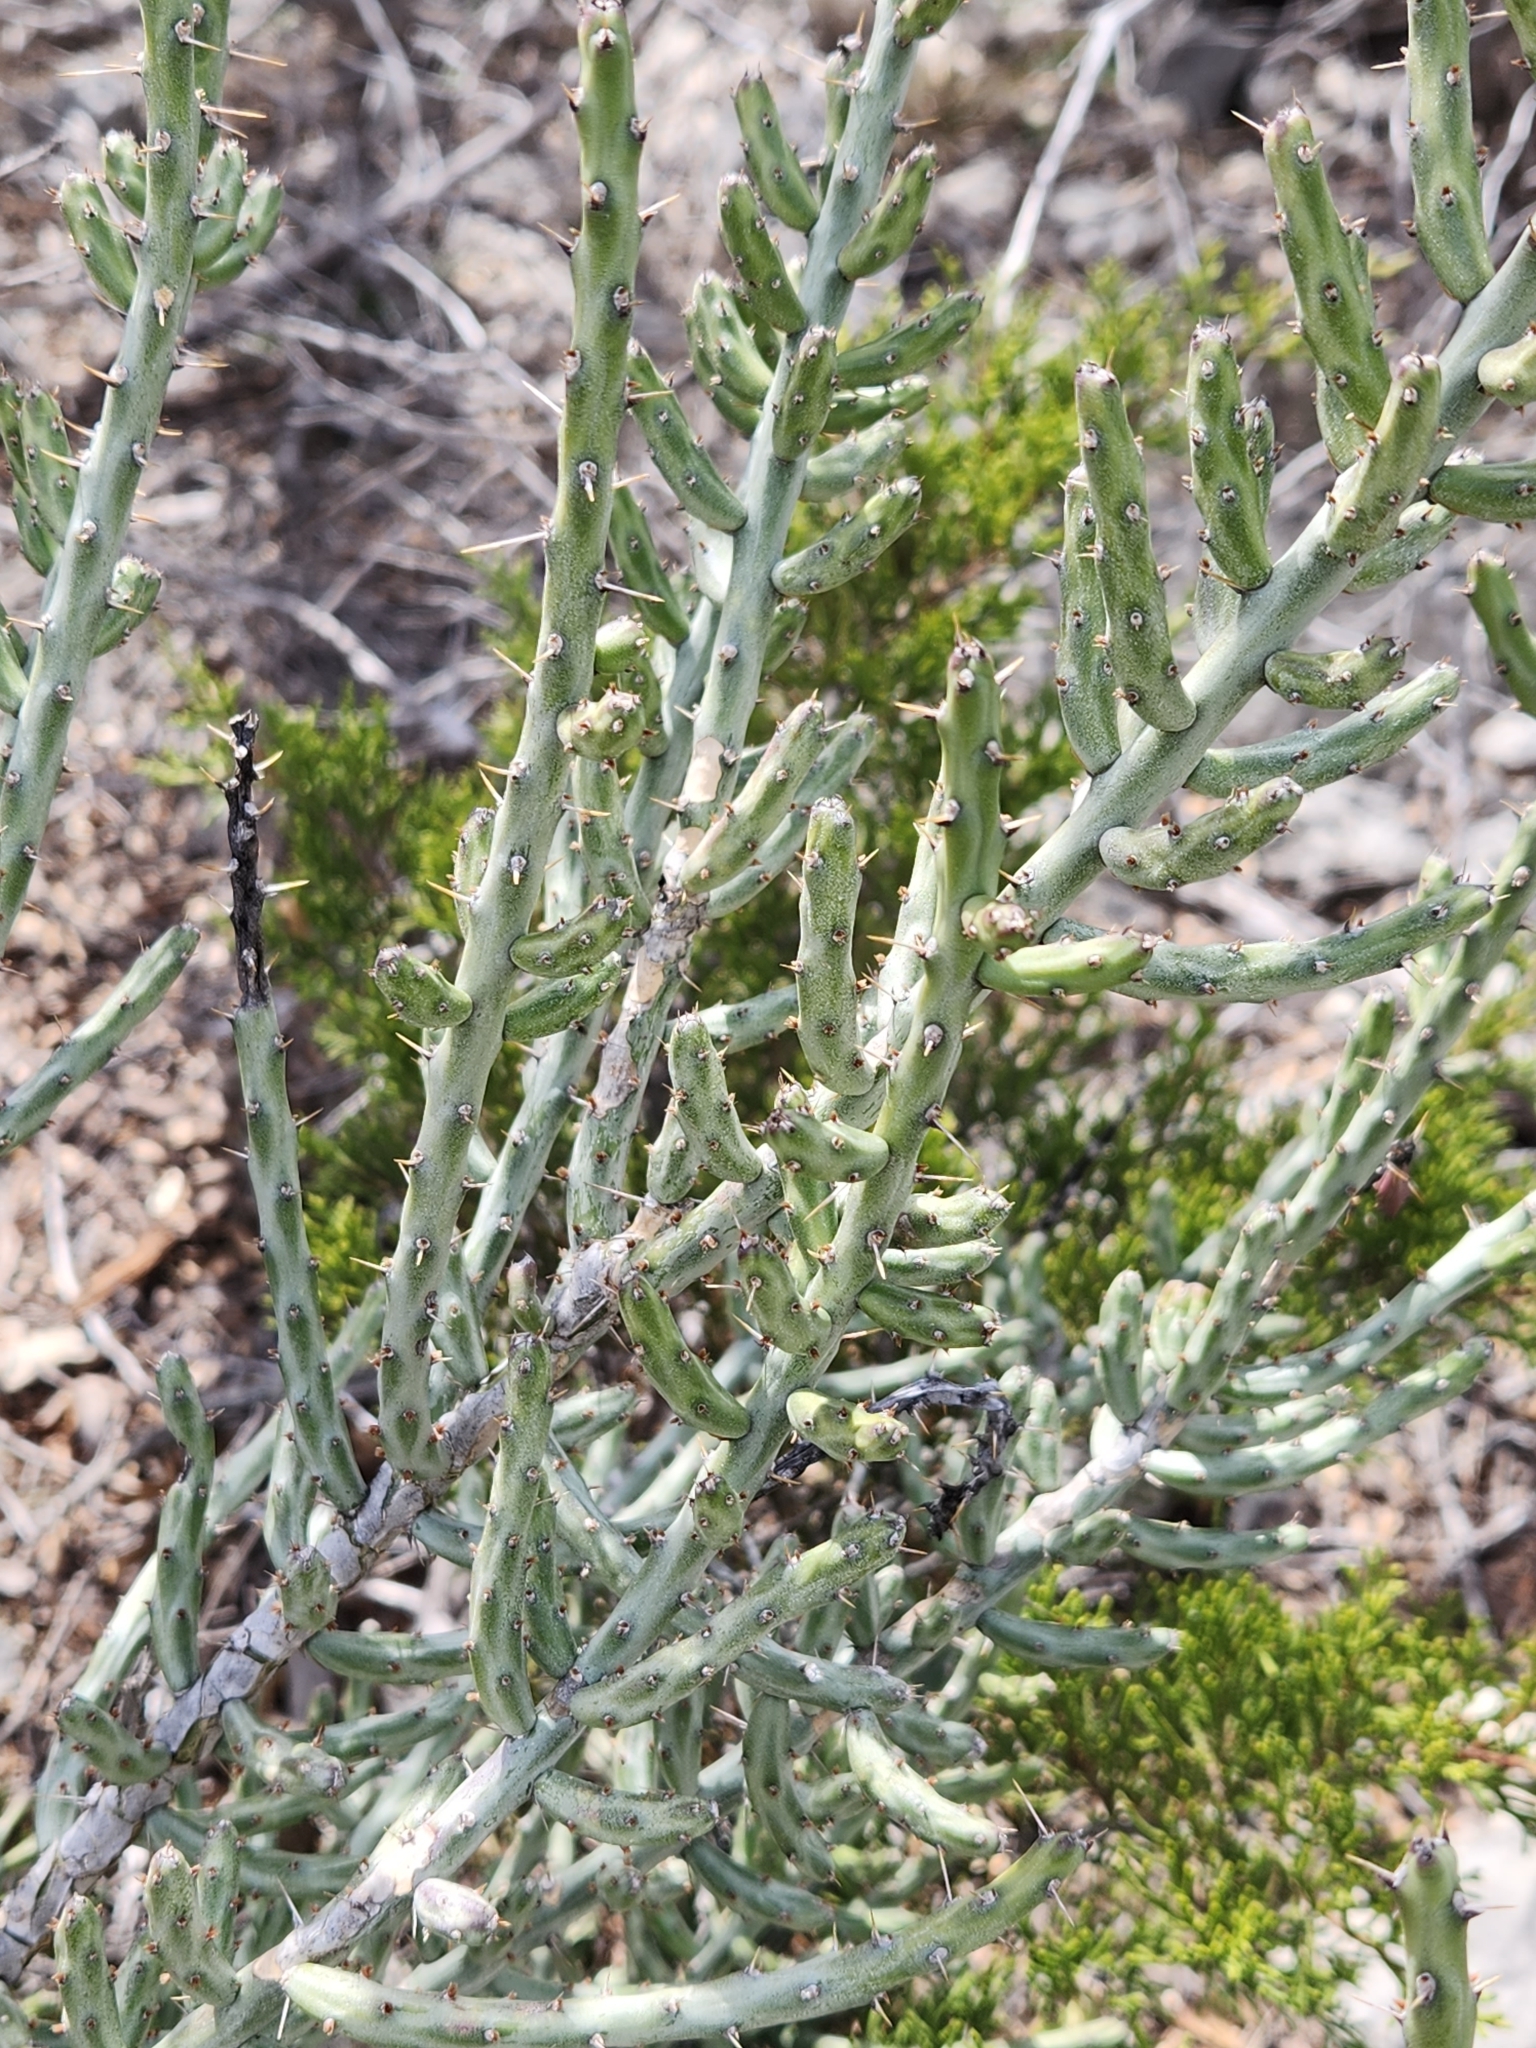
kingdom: Plantae
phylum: Tracheophyta
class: Magnoliopsida
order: Caryophyllales
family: Cactaceae
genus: Cylindropuntia
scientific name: Cylindropuntia leptocaulis
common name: Christmas cactus
